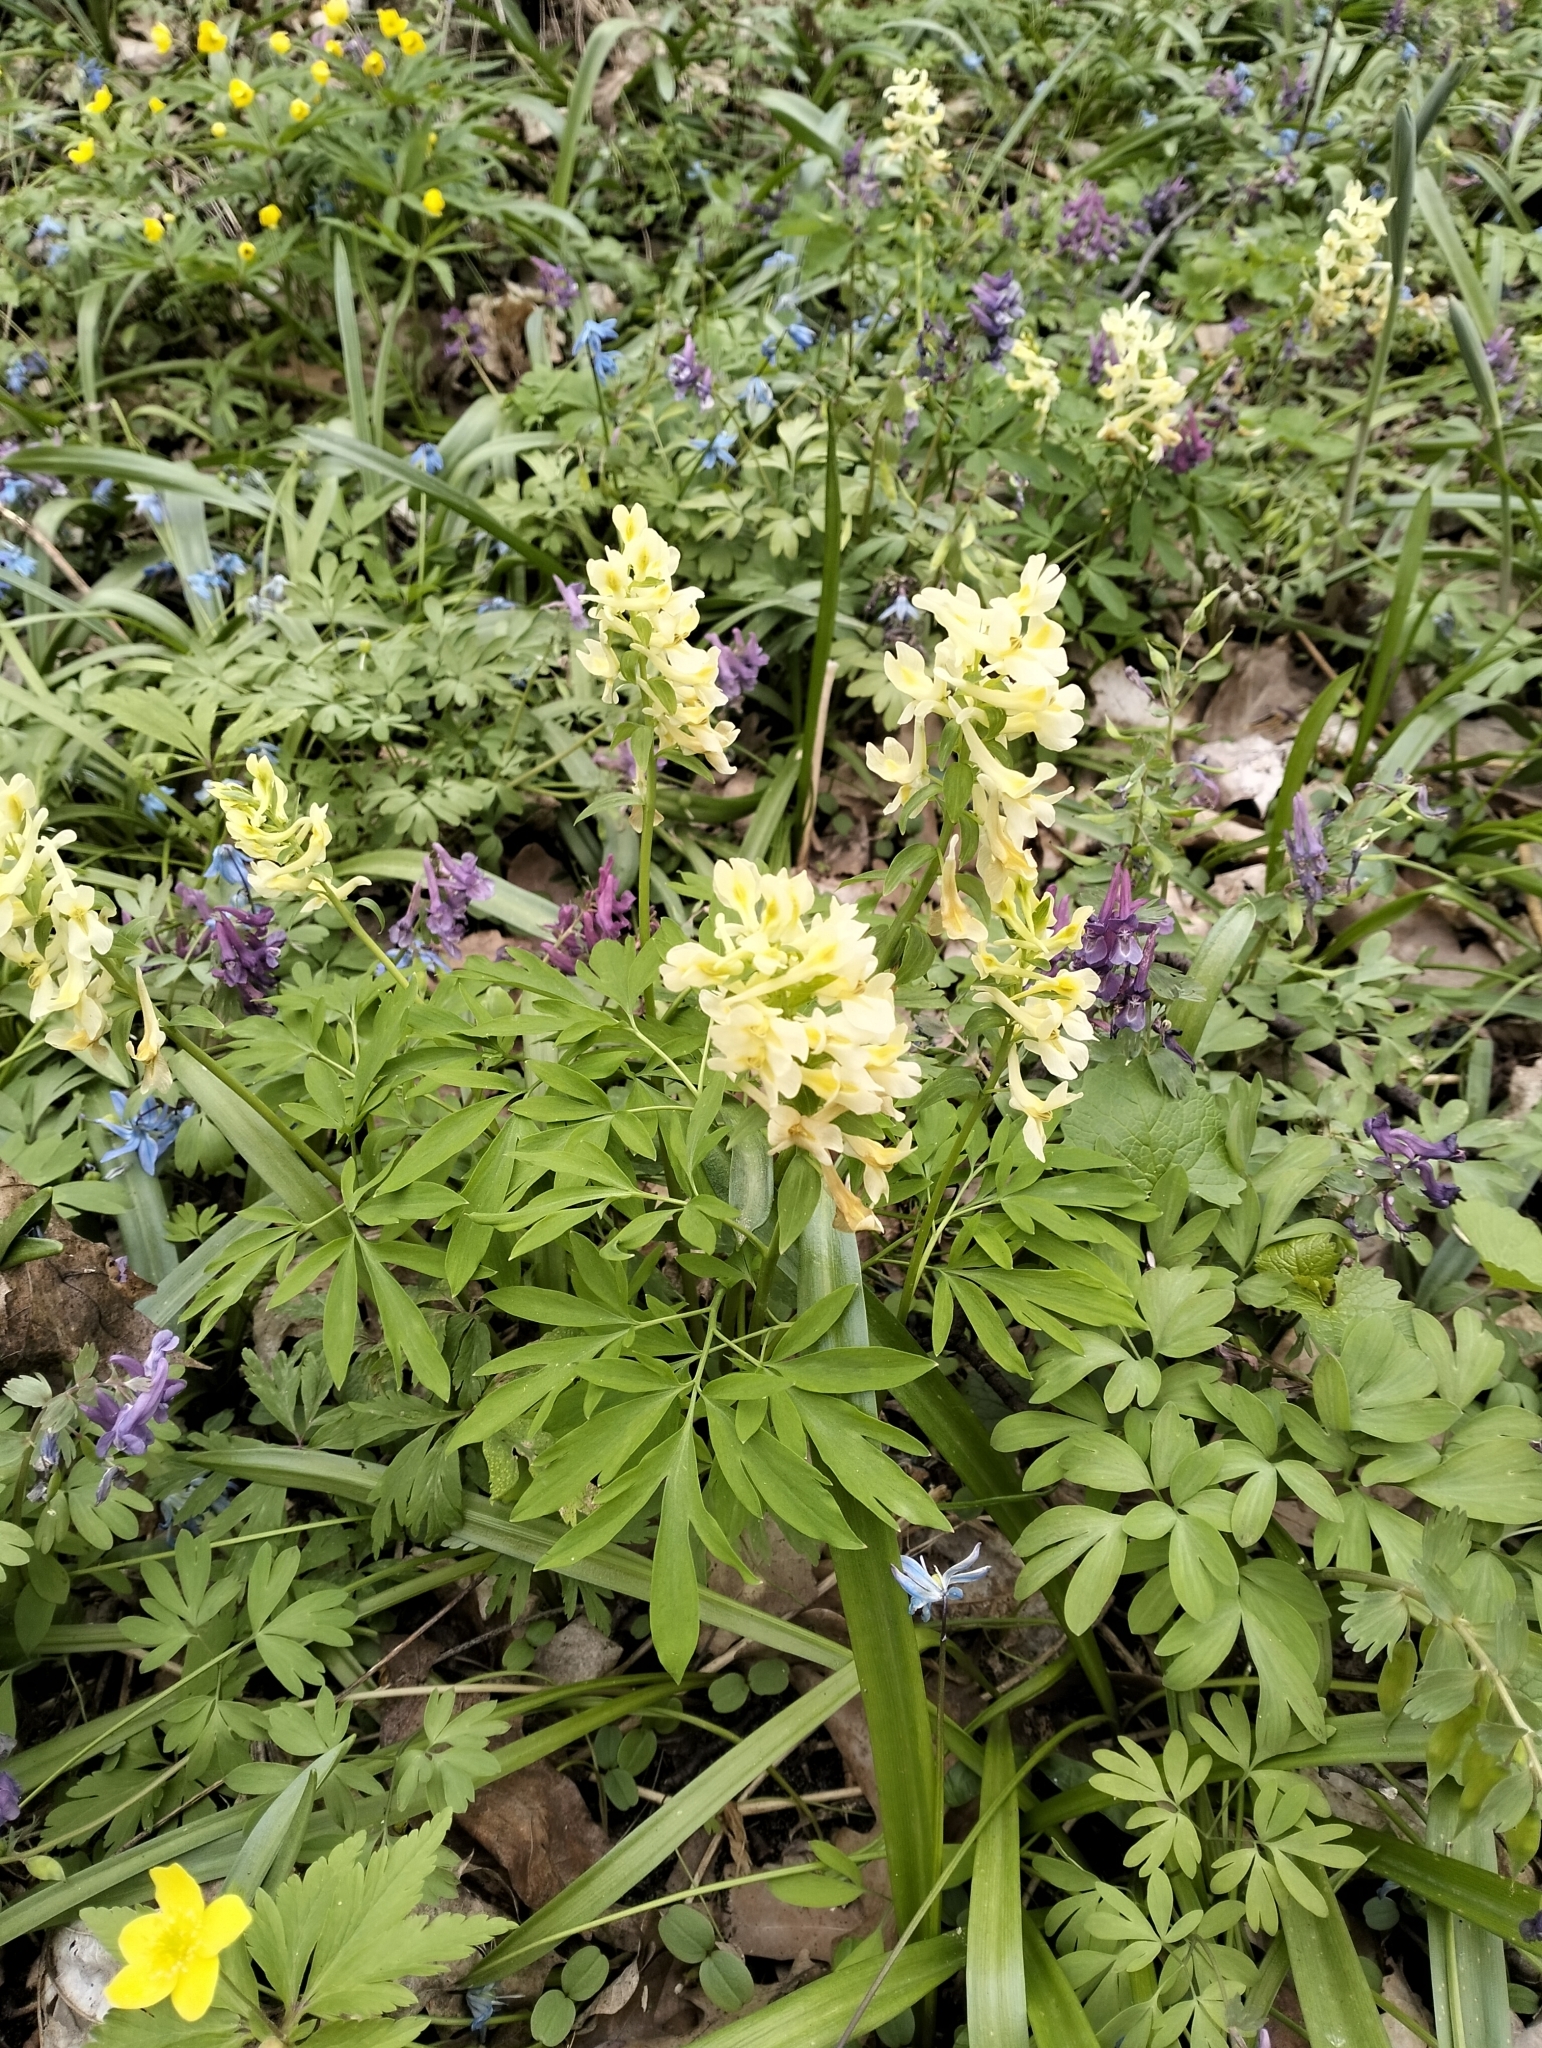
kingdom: Plantae
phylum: Tracheophyta
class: Magnoliopsida
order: Ranunculales
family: Papaveraceae
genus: Corydalis
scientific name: Corydalis cava
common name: Hollowroot
